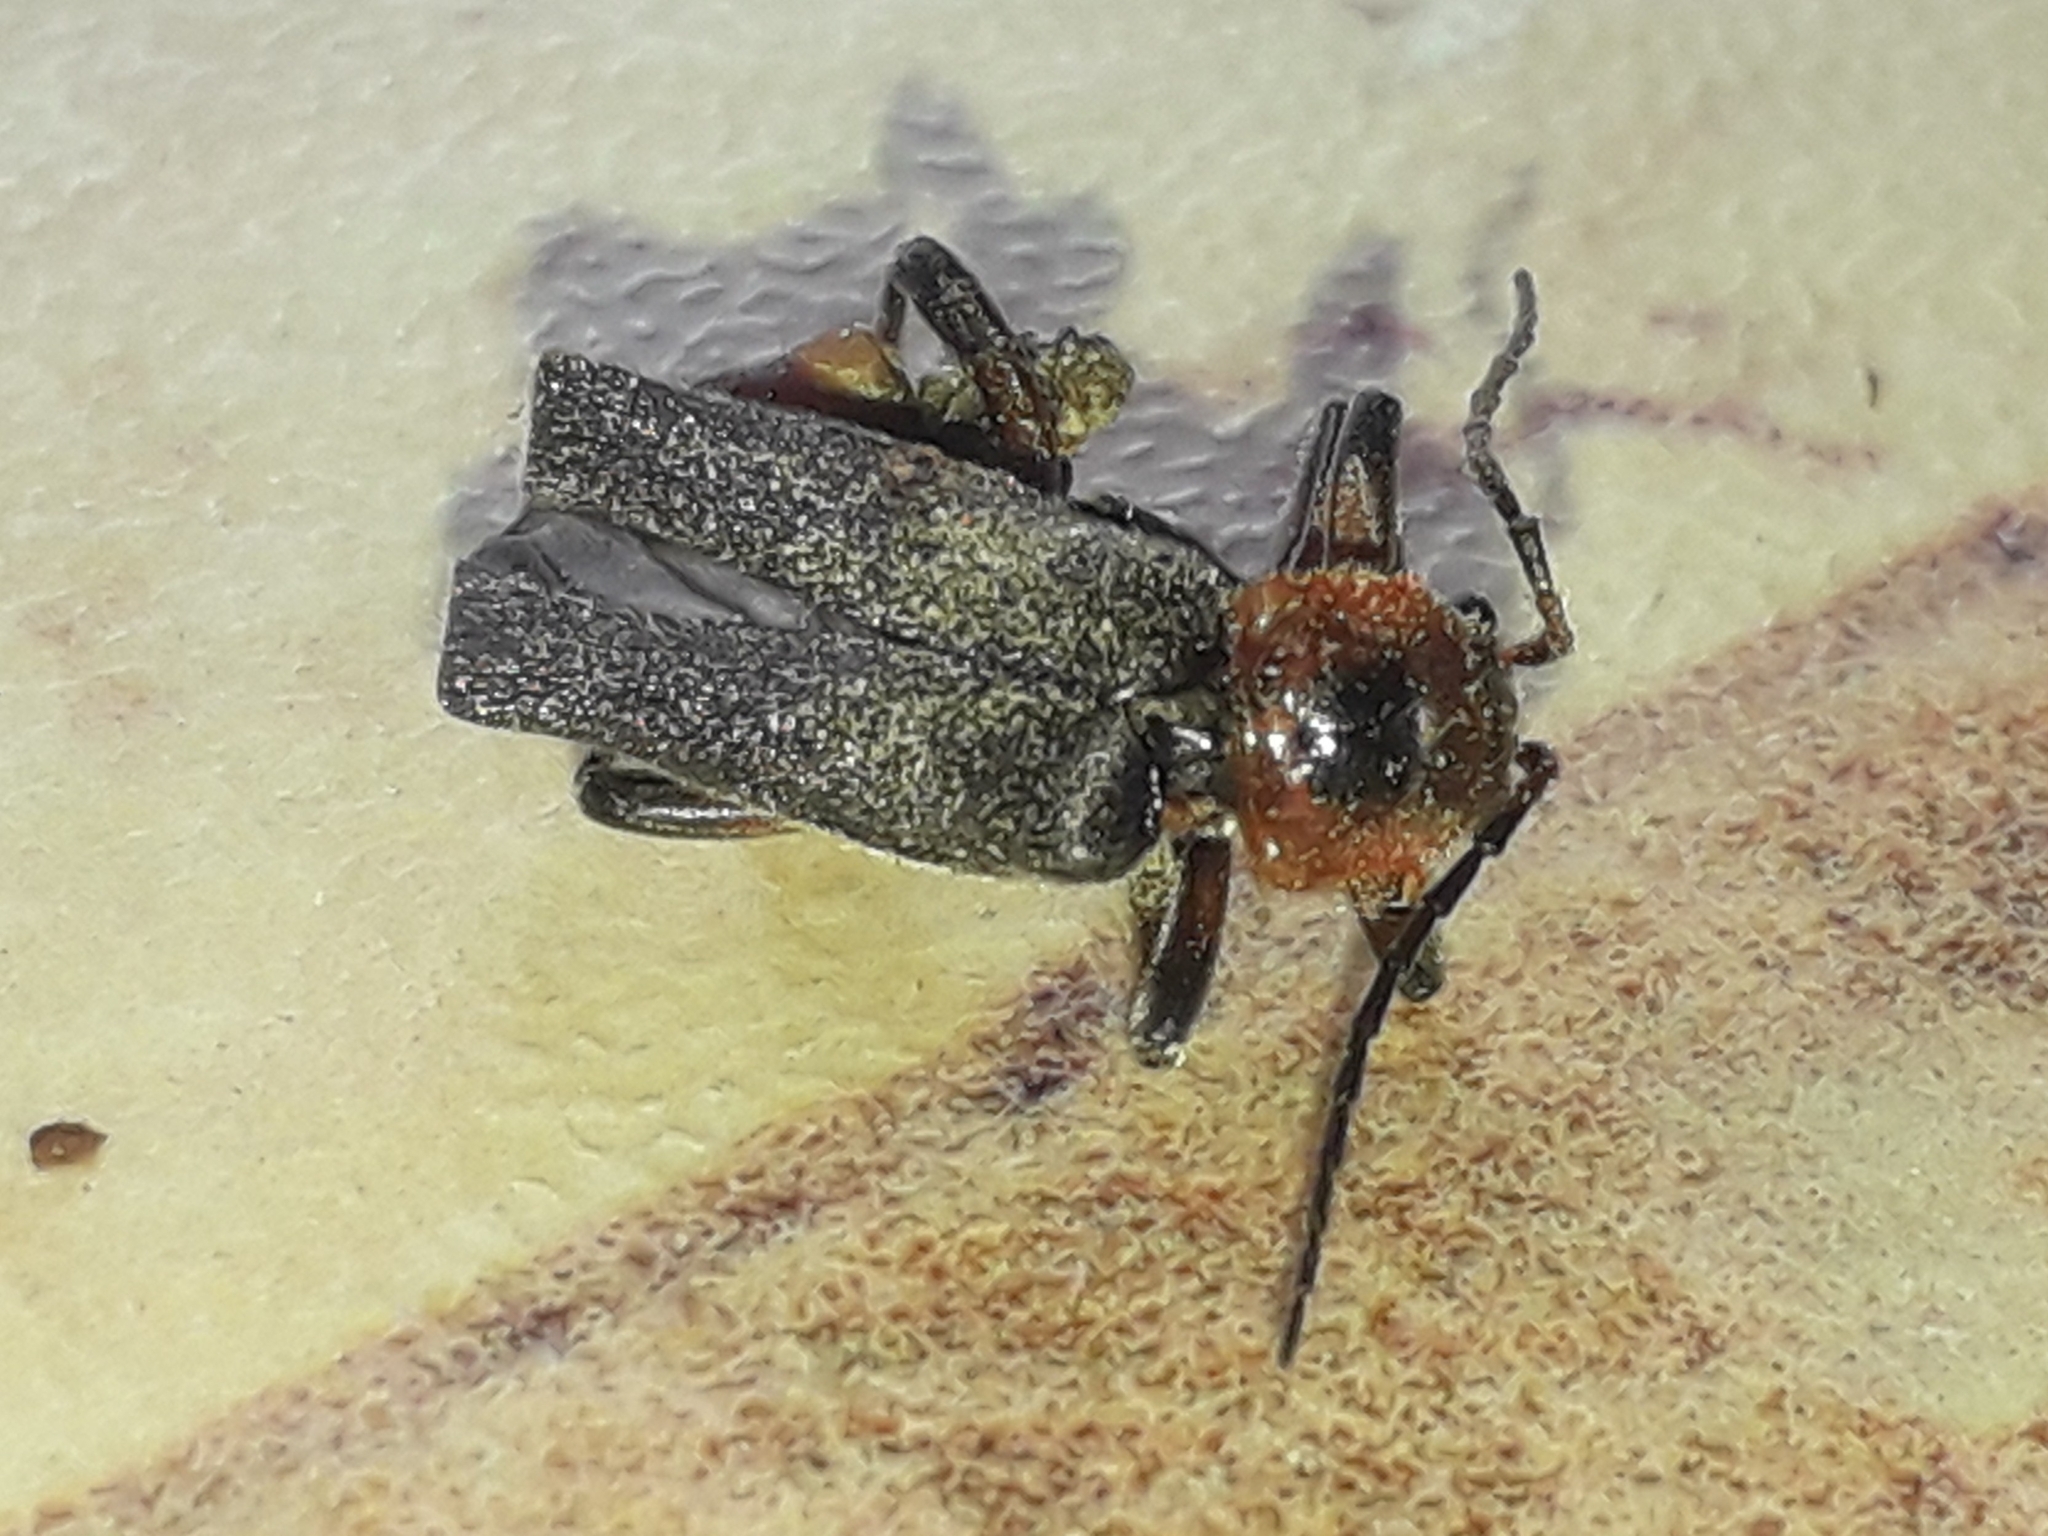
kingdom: Animalia
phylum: Arthropoda
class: Insecta
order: Coleoptera
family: Cantharidae
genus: Cantharis
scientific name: Cantharis rustica
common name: Soldier beetle
